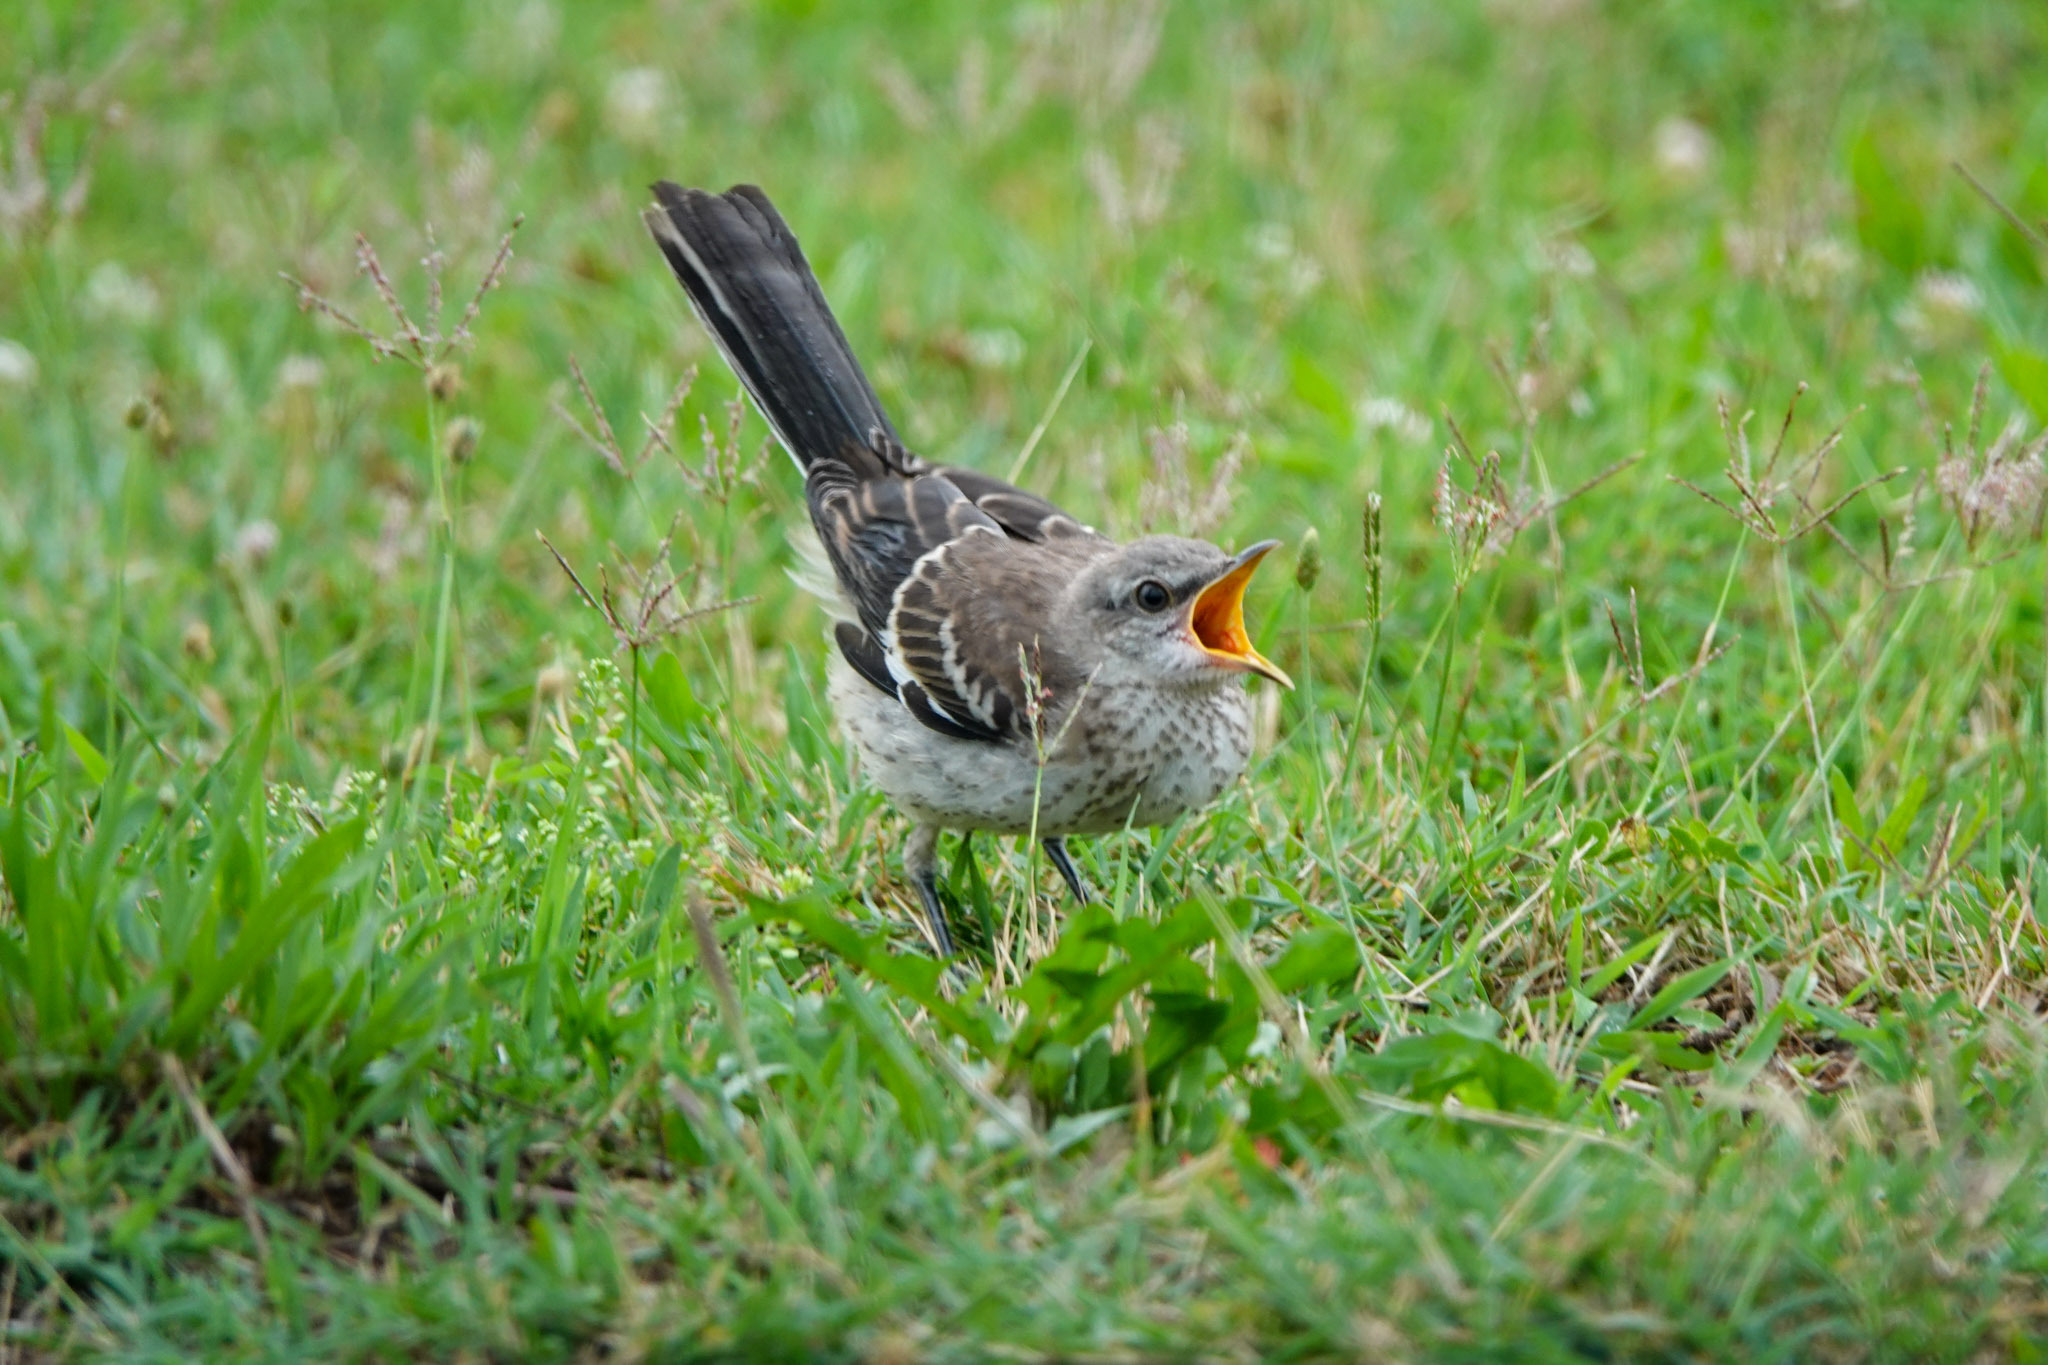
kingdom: Animalia
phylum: Chordata
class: Aves
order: Passeriformes
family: Mimidae
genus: Mimus
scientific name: Mimus polyglottos
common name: Northern mockingbird
